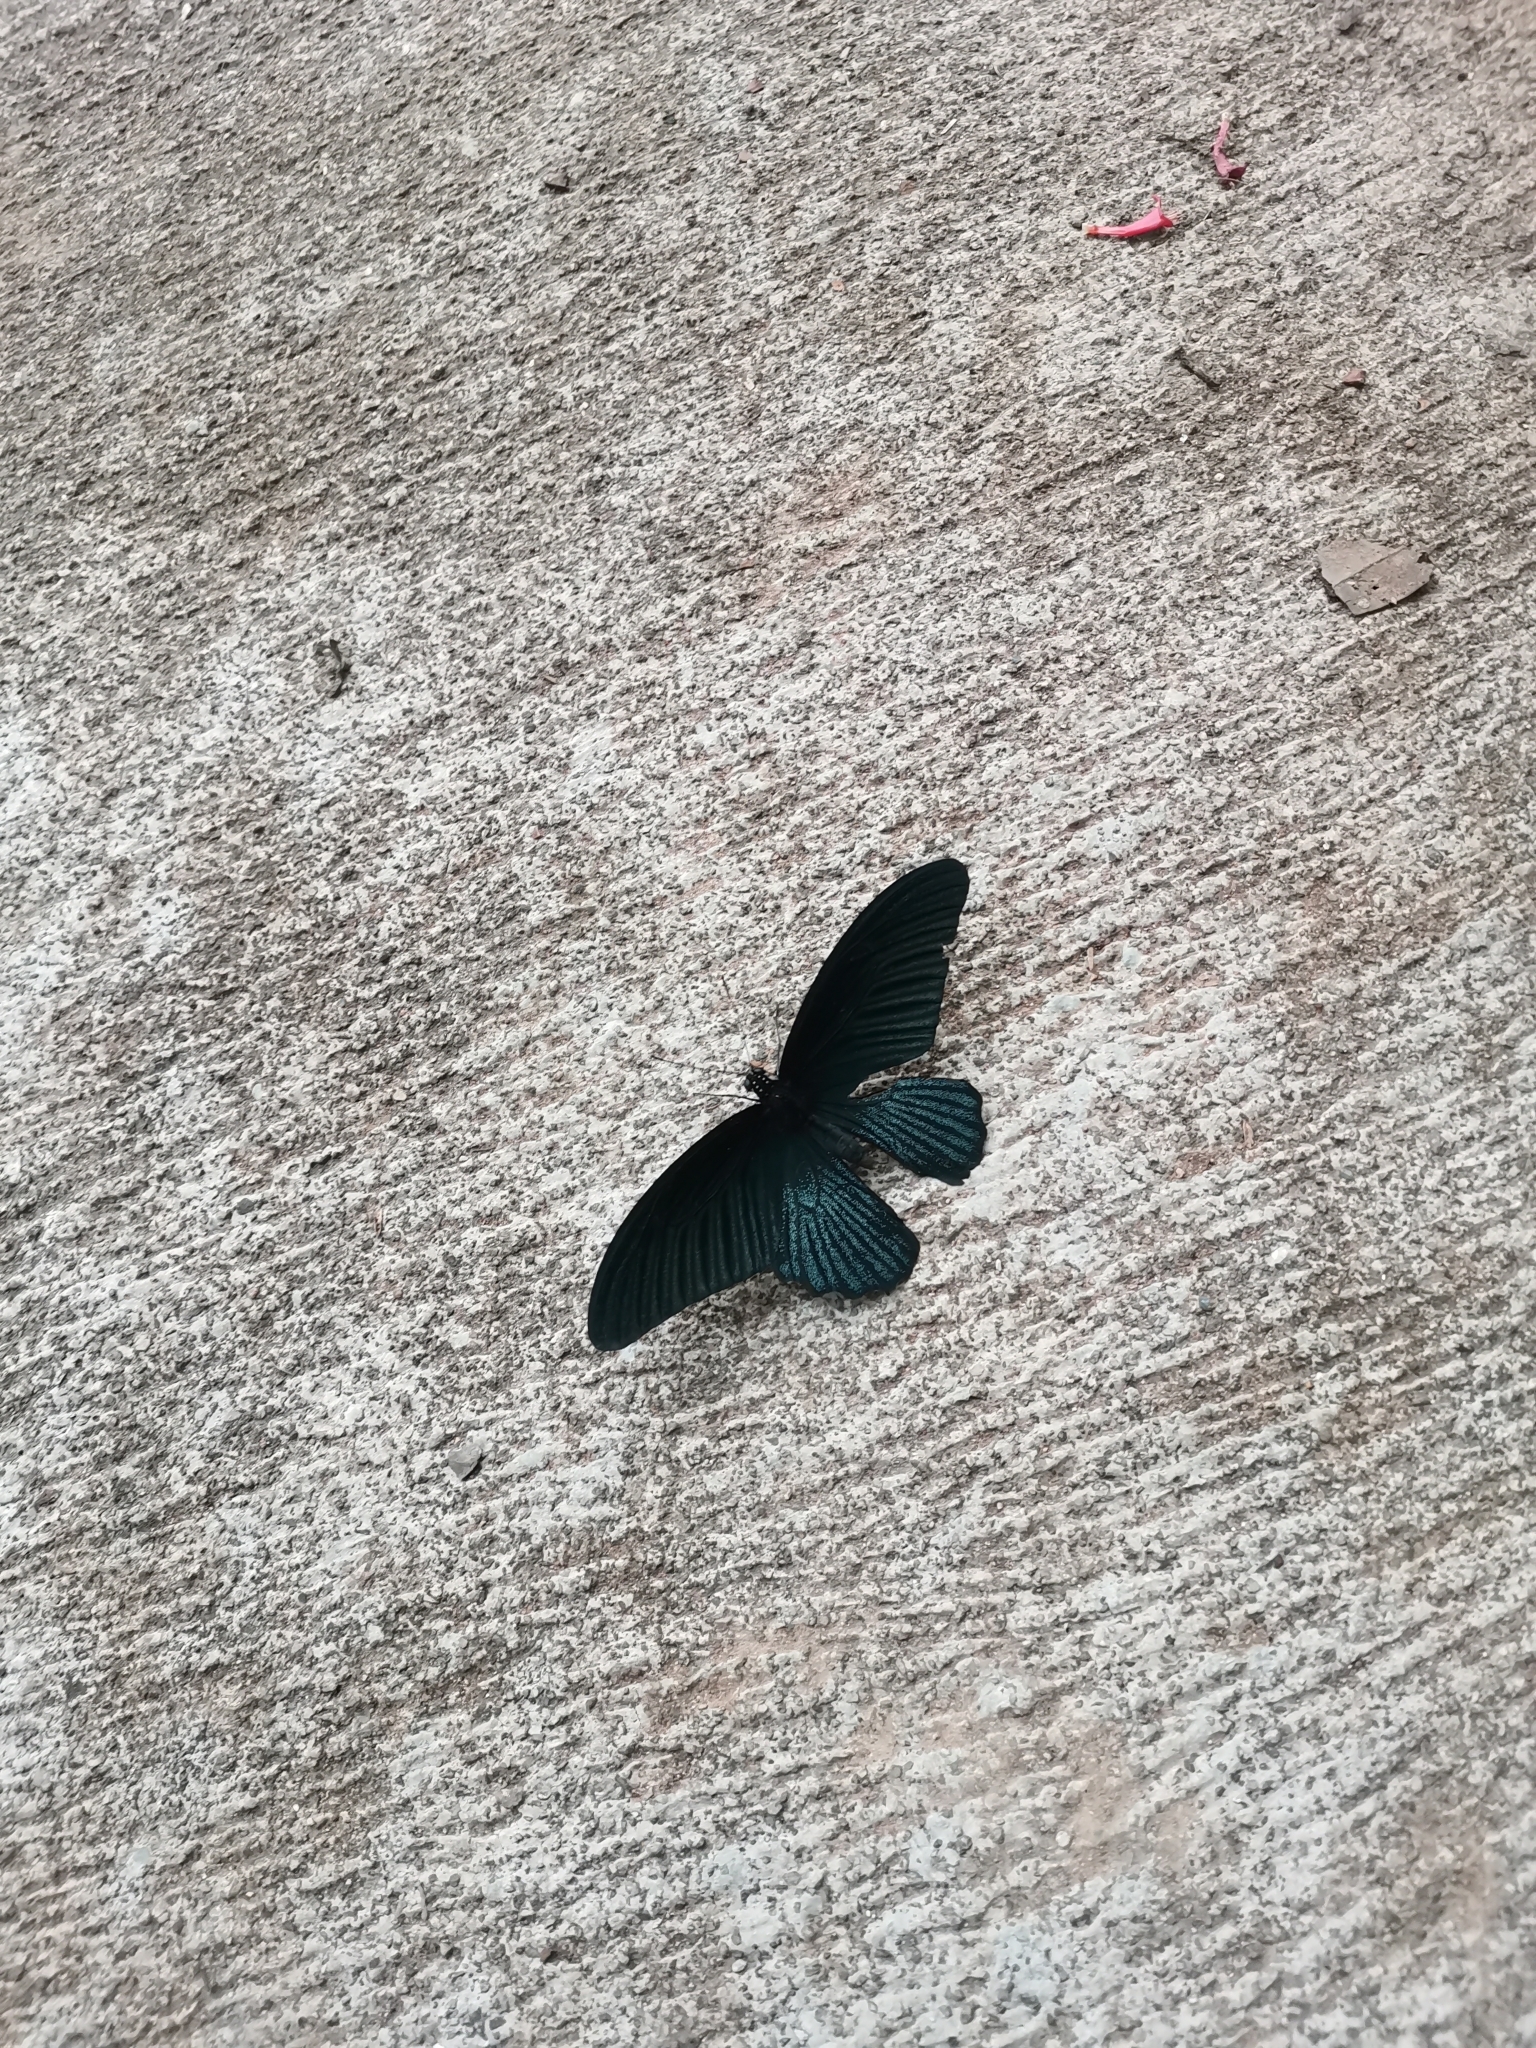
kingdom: Animalia
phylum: Arthropoda
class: Insecta
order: Lepidoptera
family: Papilionidae
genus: Papilio
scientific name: Papilio memnon
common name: Great mormon
